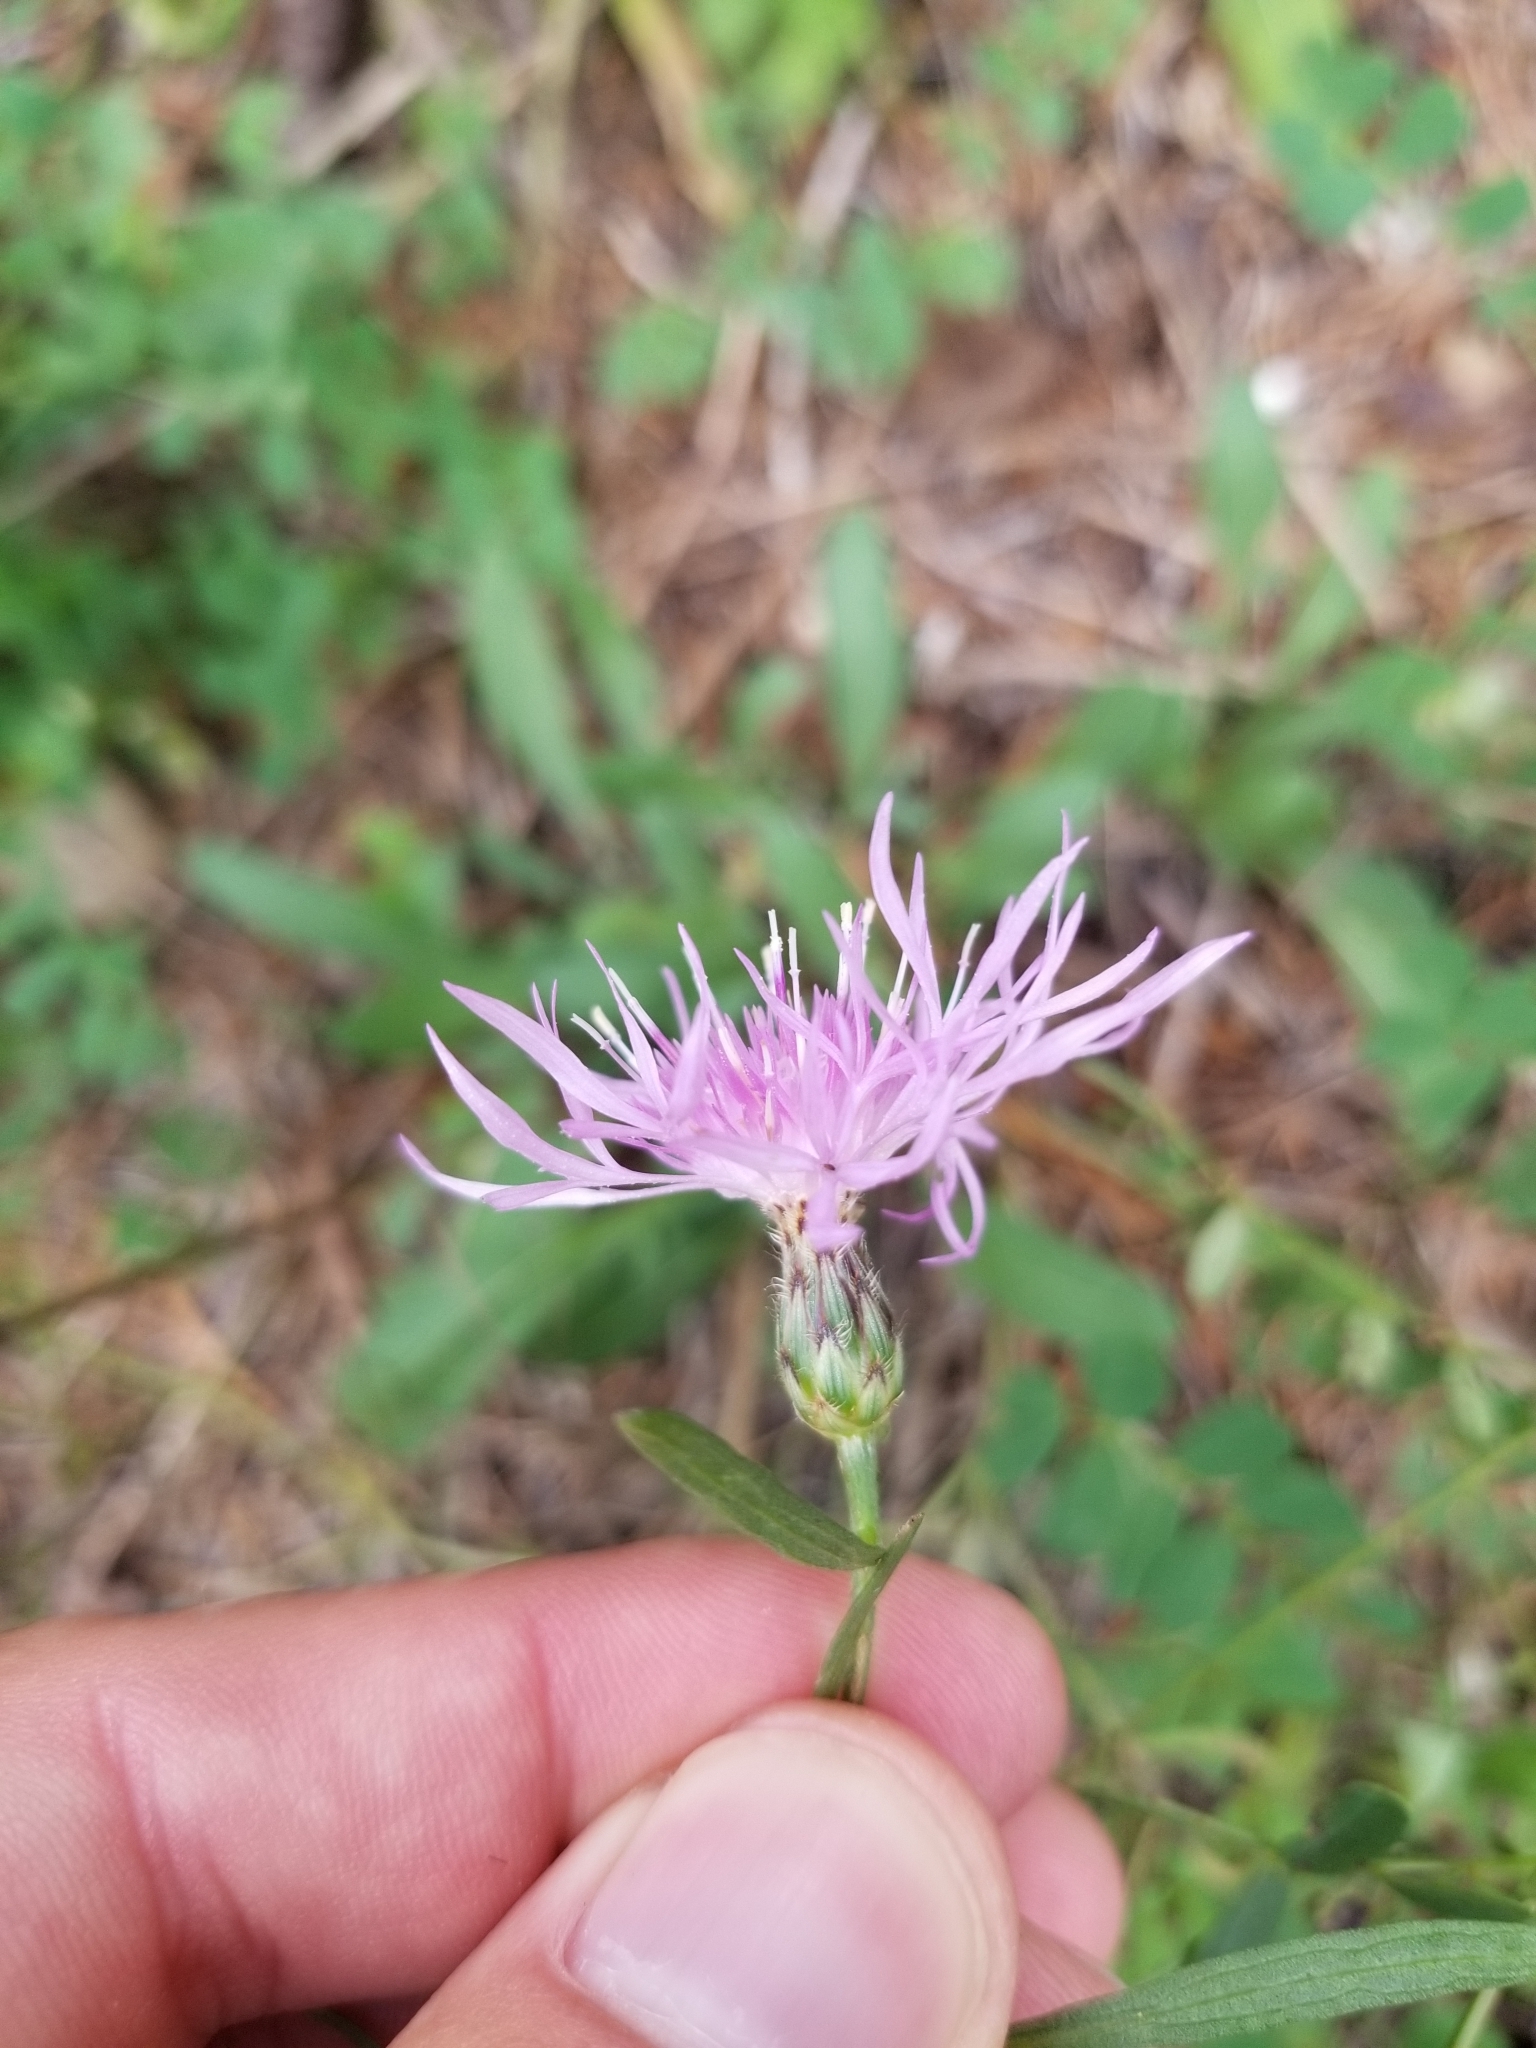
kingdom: Plantae
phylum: Tracheophyta
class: Magnoliopsida
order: Asterales
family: Asteraceae
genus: Centaurea
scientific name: Centaurea stoebe
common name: Spotted knapweed
